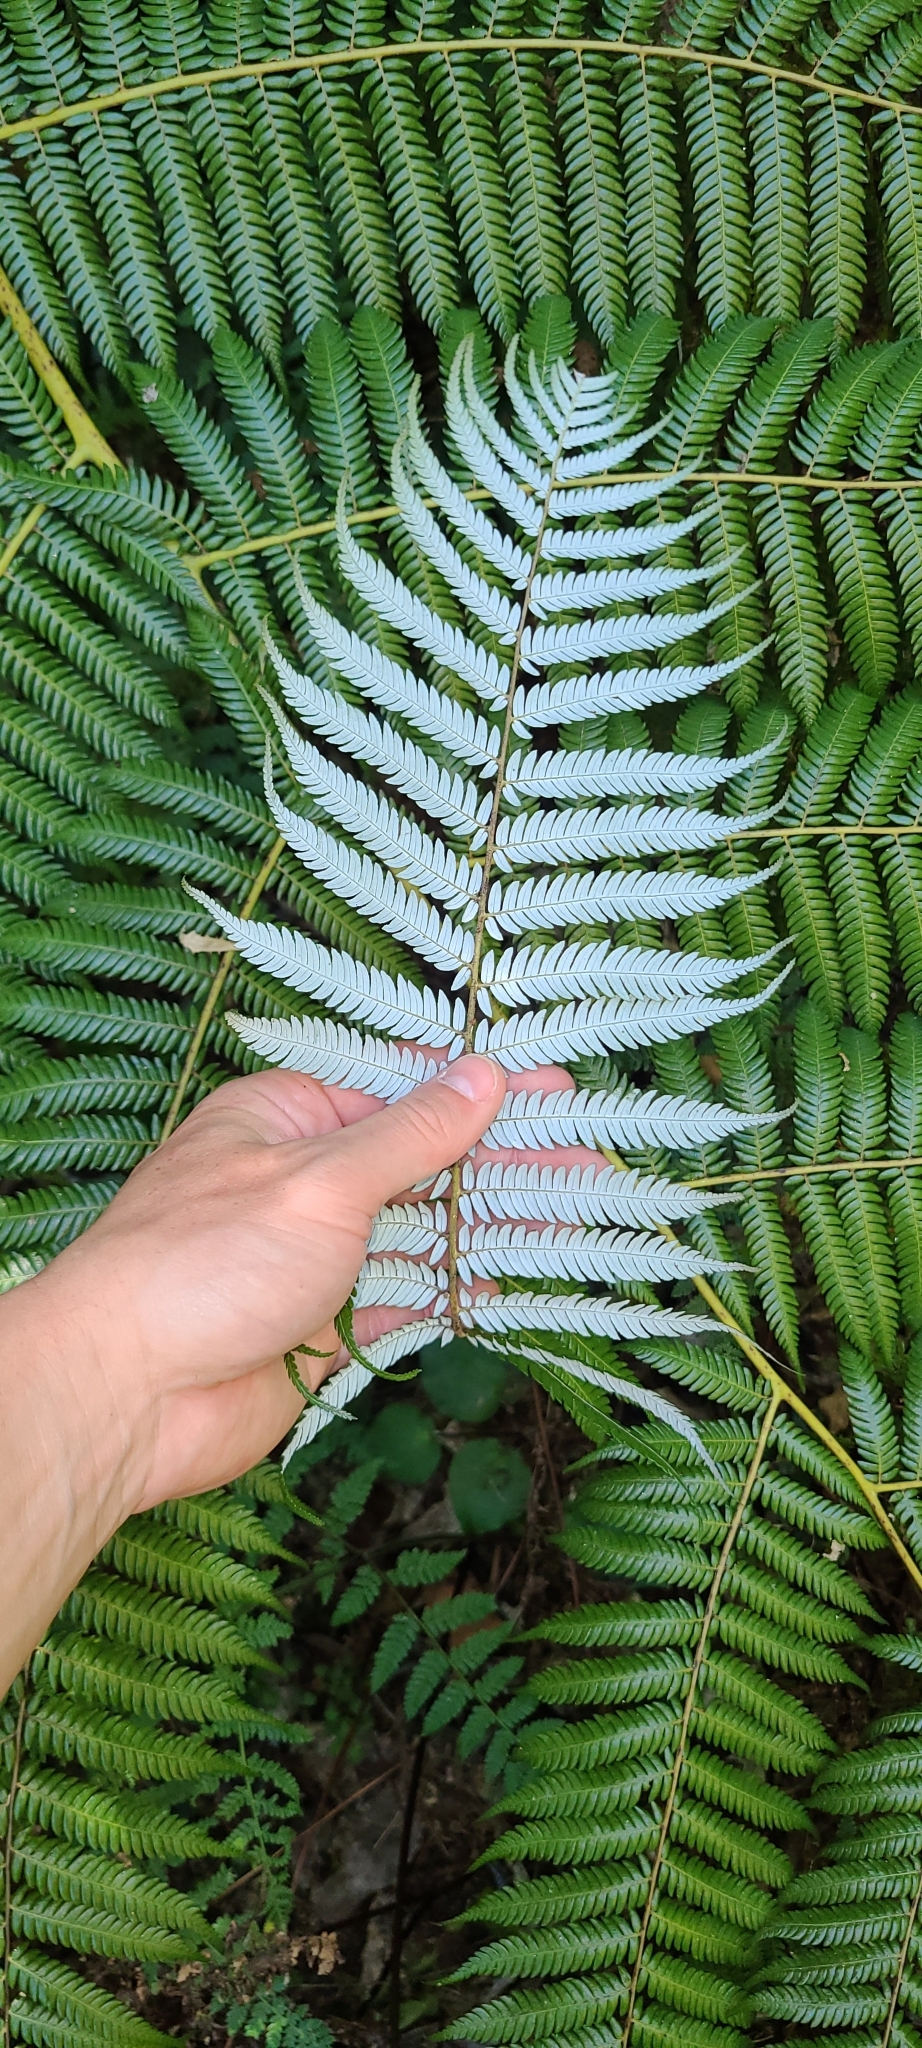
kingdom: Plantae
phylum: Tracheophyta
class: Polypodiopsida
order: Cyatheales
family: Cyatheaceae
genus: Alsophila
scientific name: Alsophila dealbata
